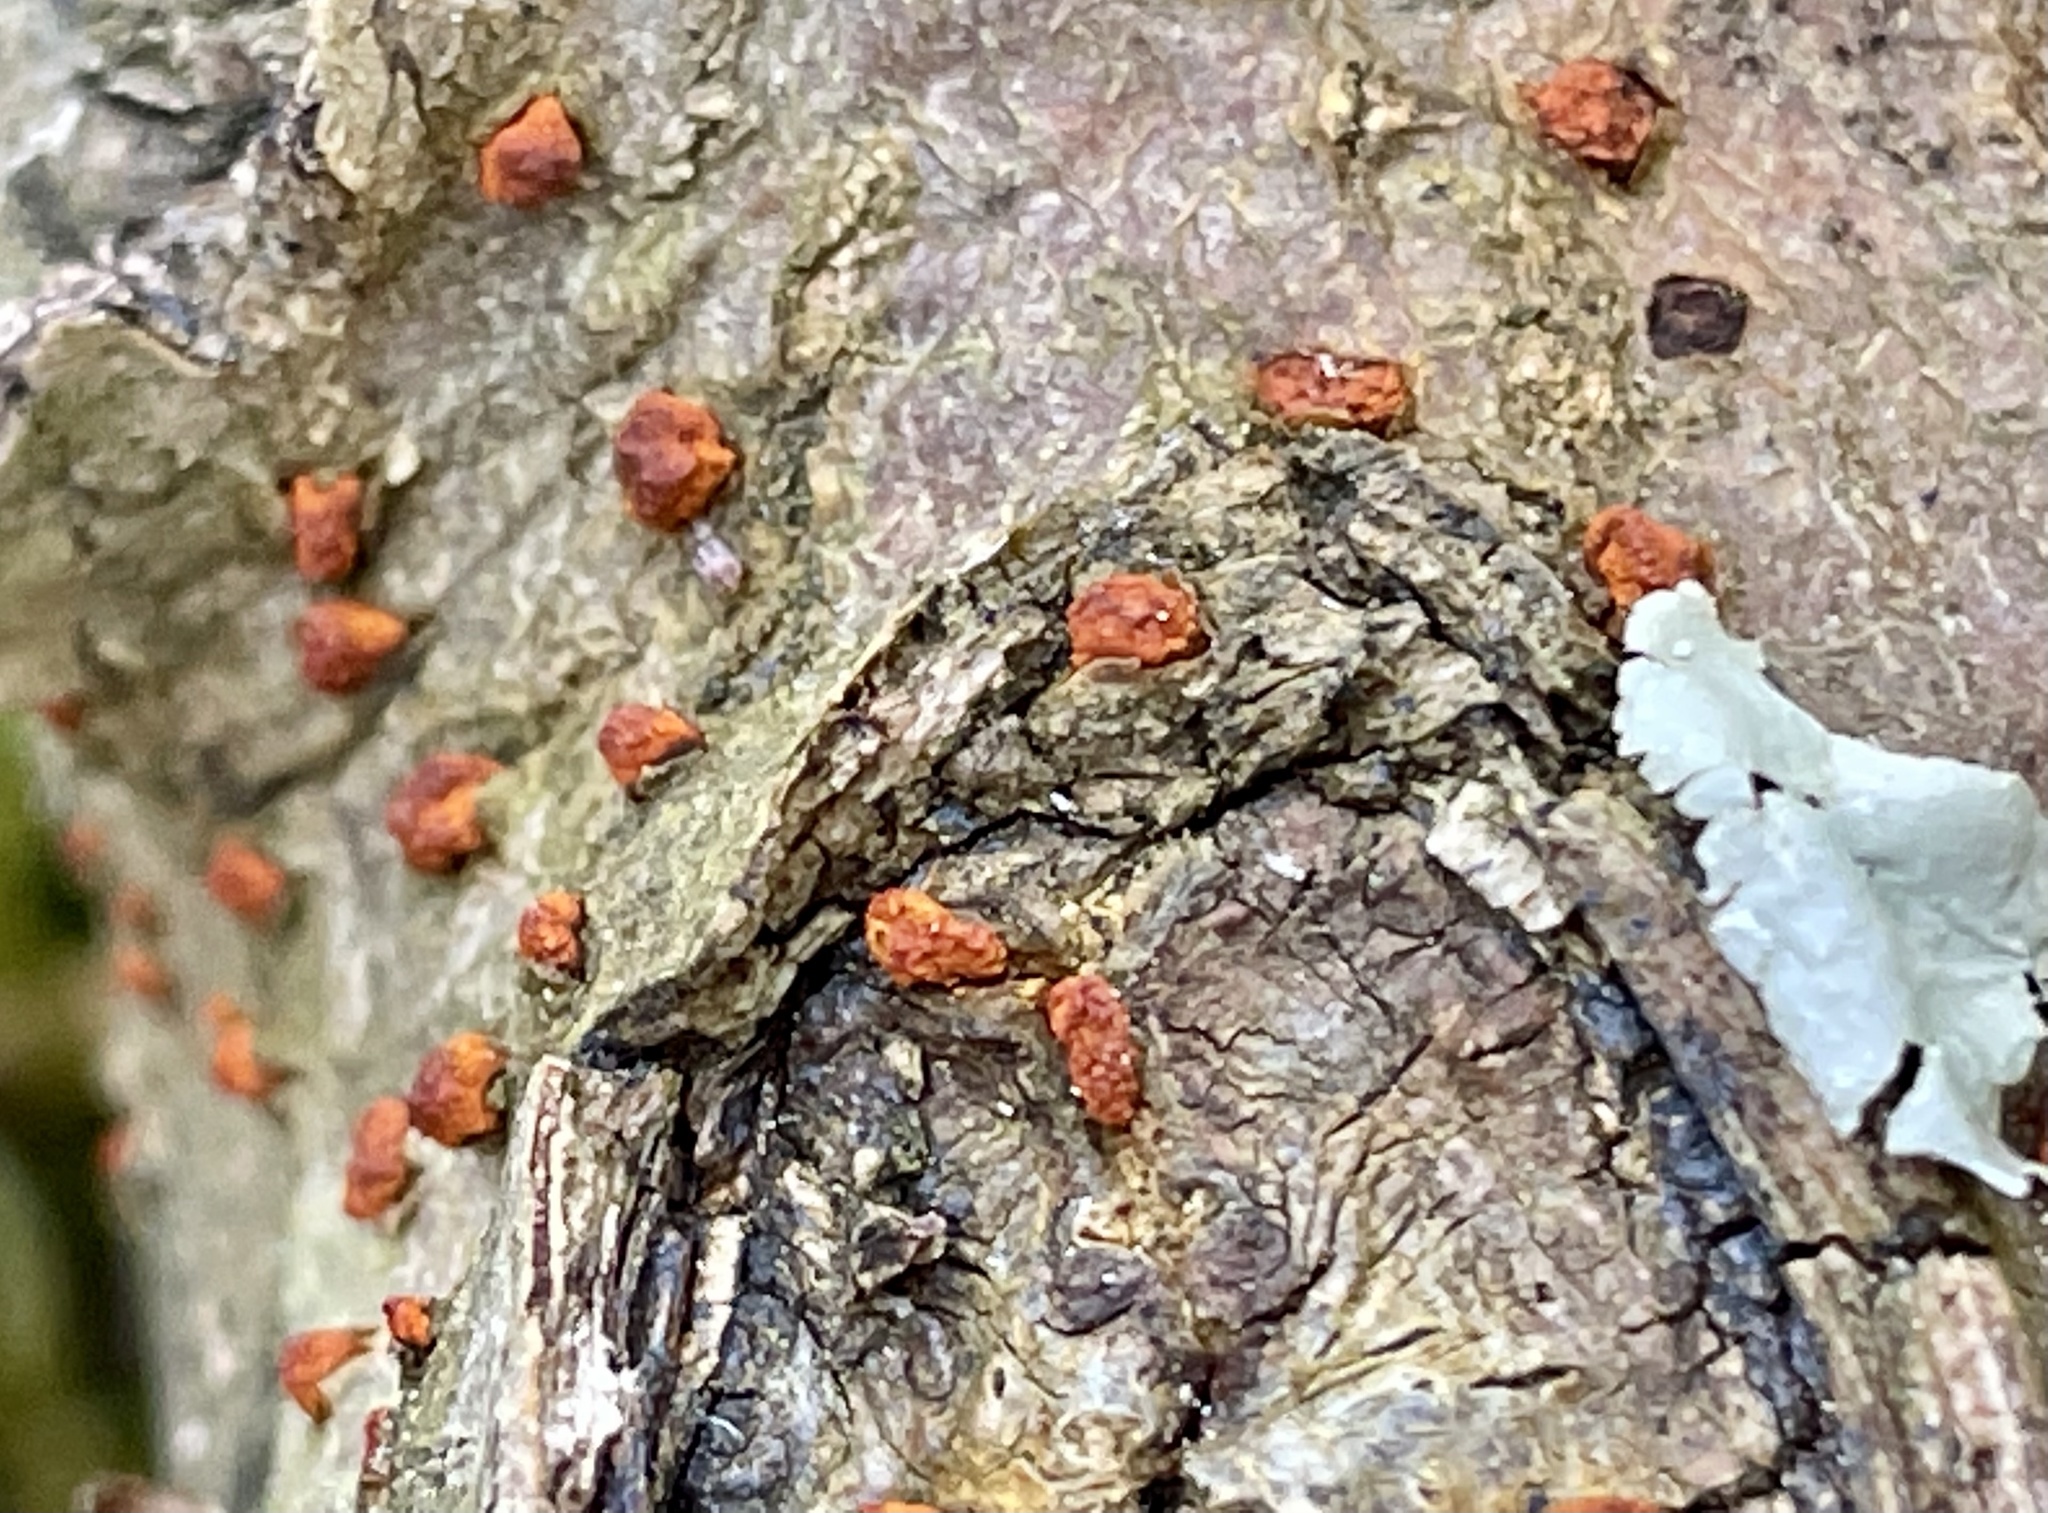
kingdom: Fungi
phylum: Ascomycota
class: Sordariomycetes
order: Diaporthales
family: Cryphonectriaceae
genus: Amphilogia
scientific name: Amphilogia gyrosa
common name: Orange hobnail canker
